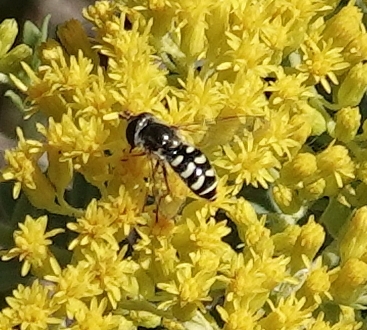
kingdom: Animalia
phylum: Arthropoda
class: Insecta
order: Diptera
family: Syrphidae
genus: Eupeodes
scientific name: Eupeodes volucris
